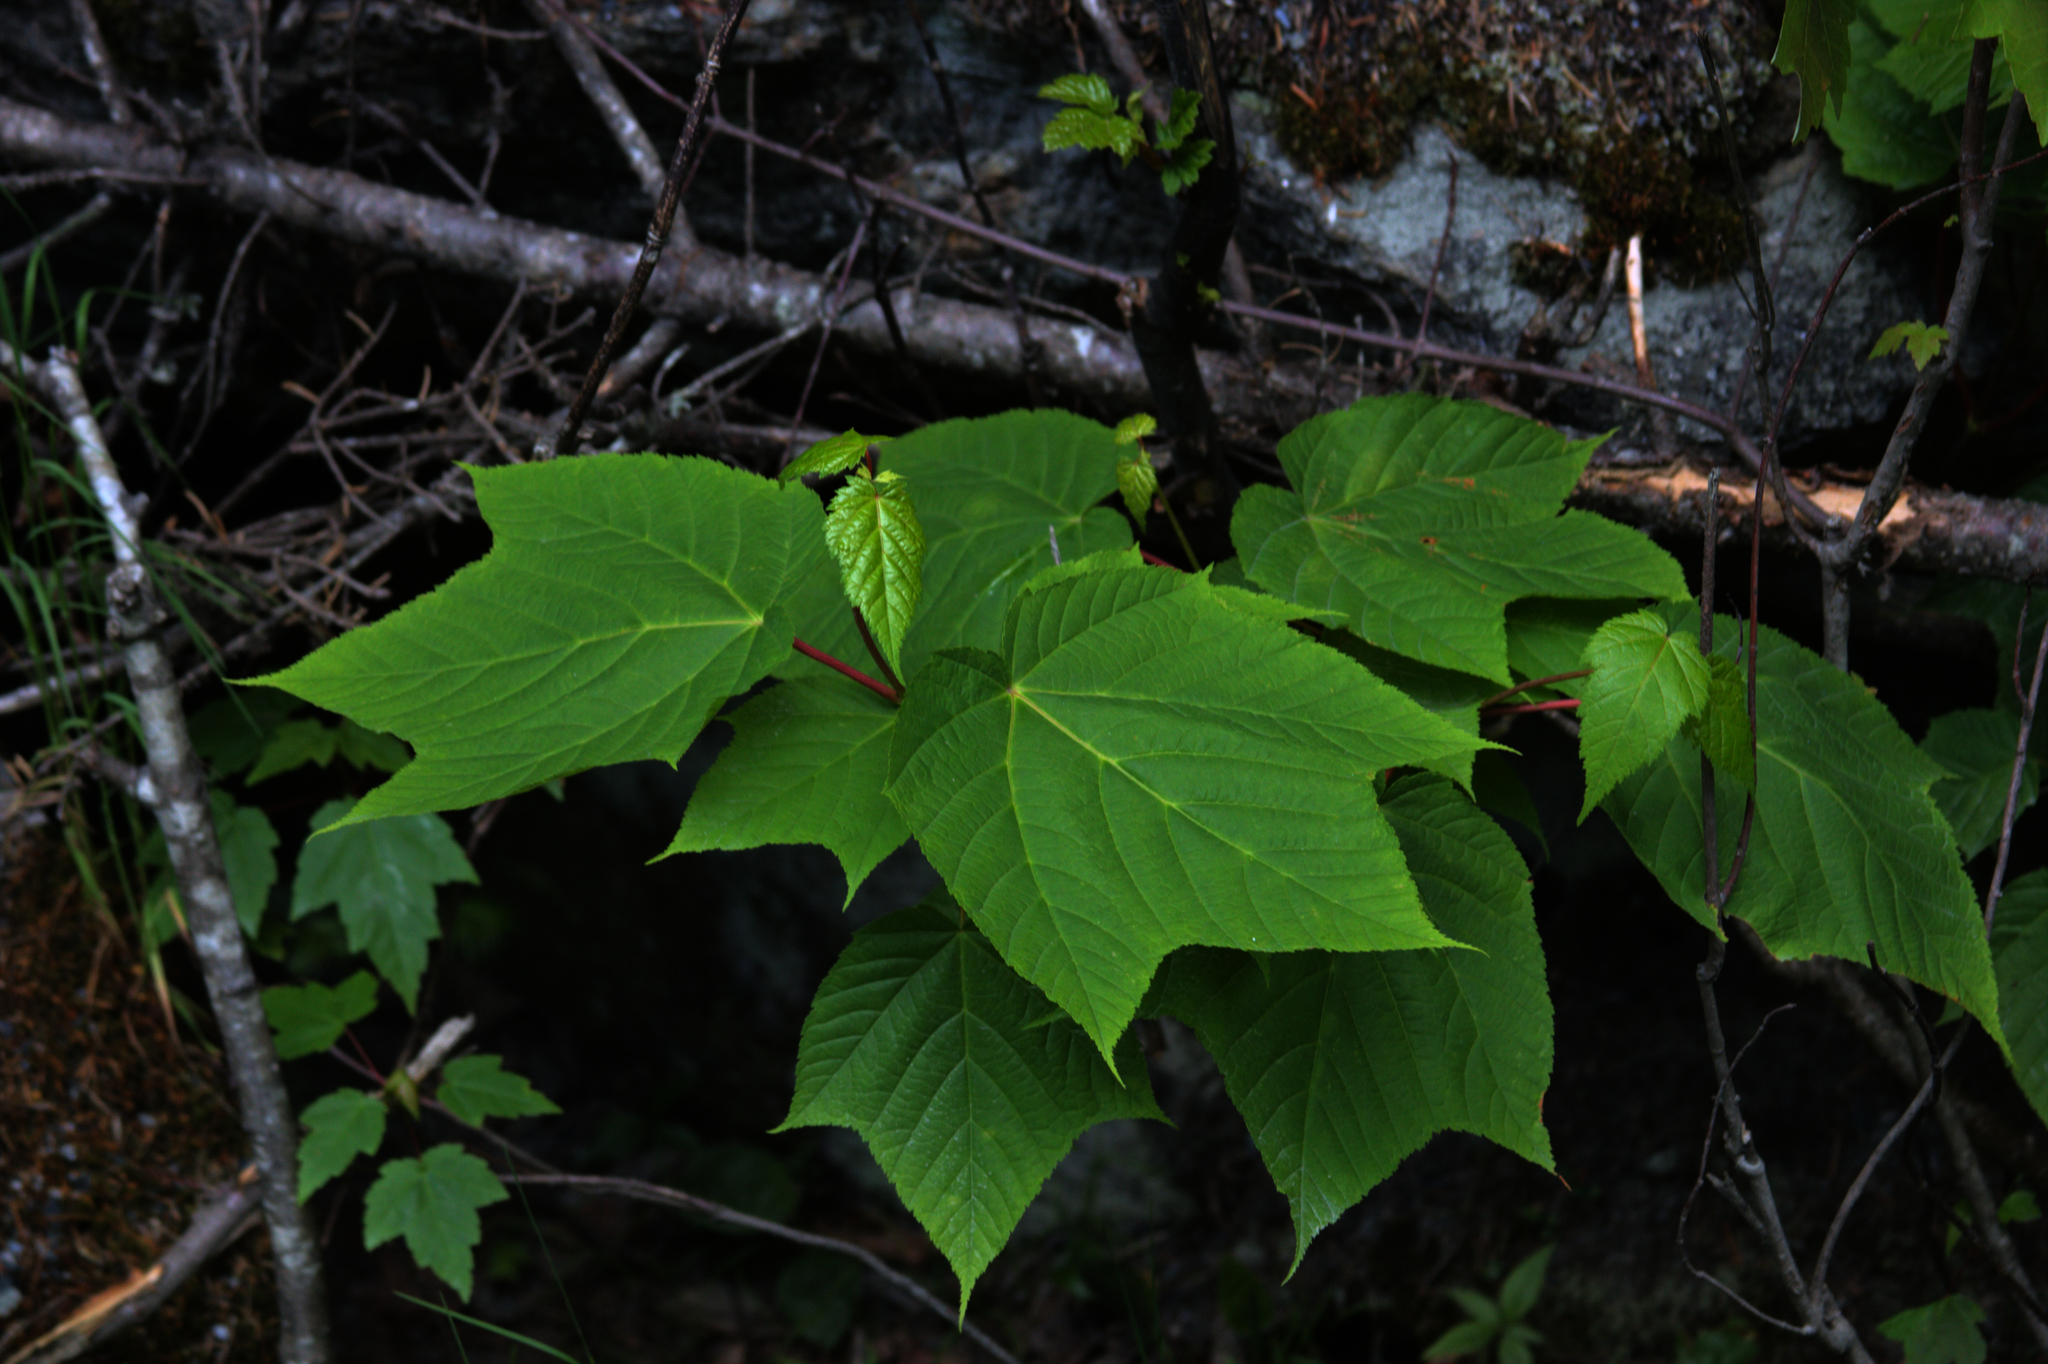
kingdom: Plantae
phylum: Tracheophyta
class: Magnoliopsida
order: Sapindales
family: Sapindaceae
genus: Acer
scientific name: Acer pensylvanicum
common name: Moosewood
